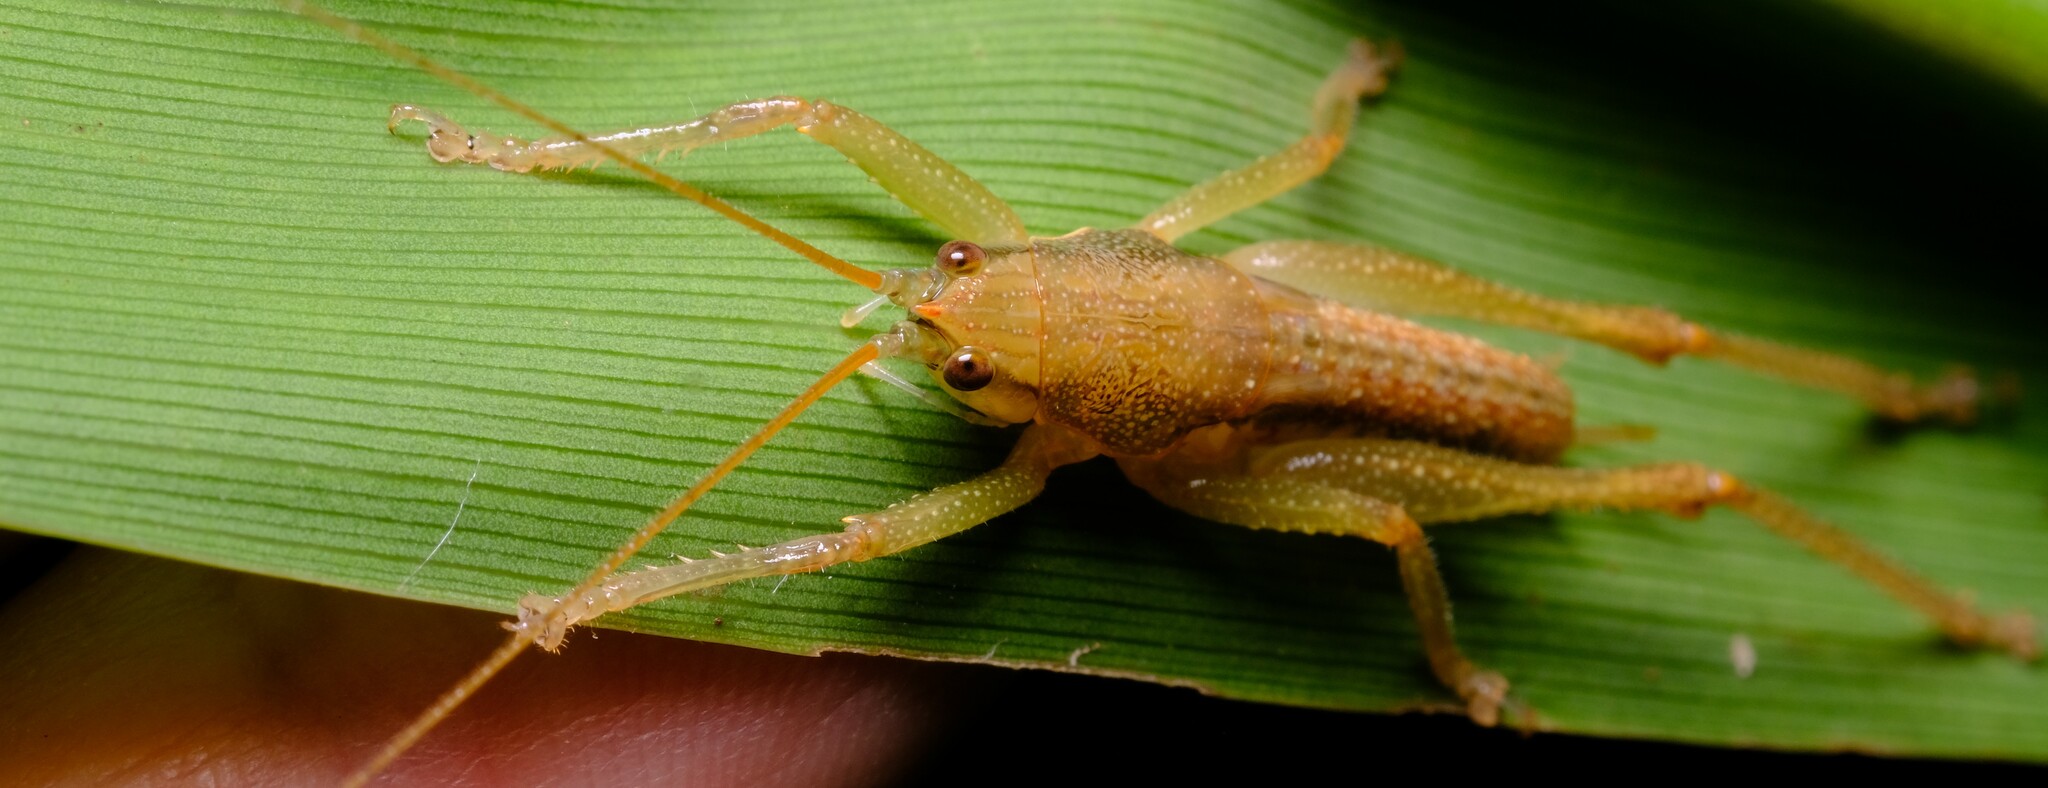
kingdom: Animalia
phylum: Arthropoda
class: Insecta
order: Orthoptera
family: Tettigoniidae
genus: Austrosalomona
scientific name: Austrosalomona falcata
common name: Olive-green coastal katydid
